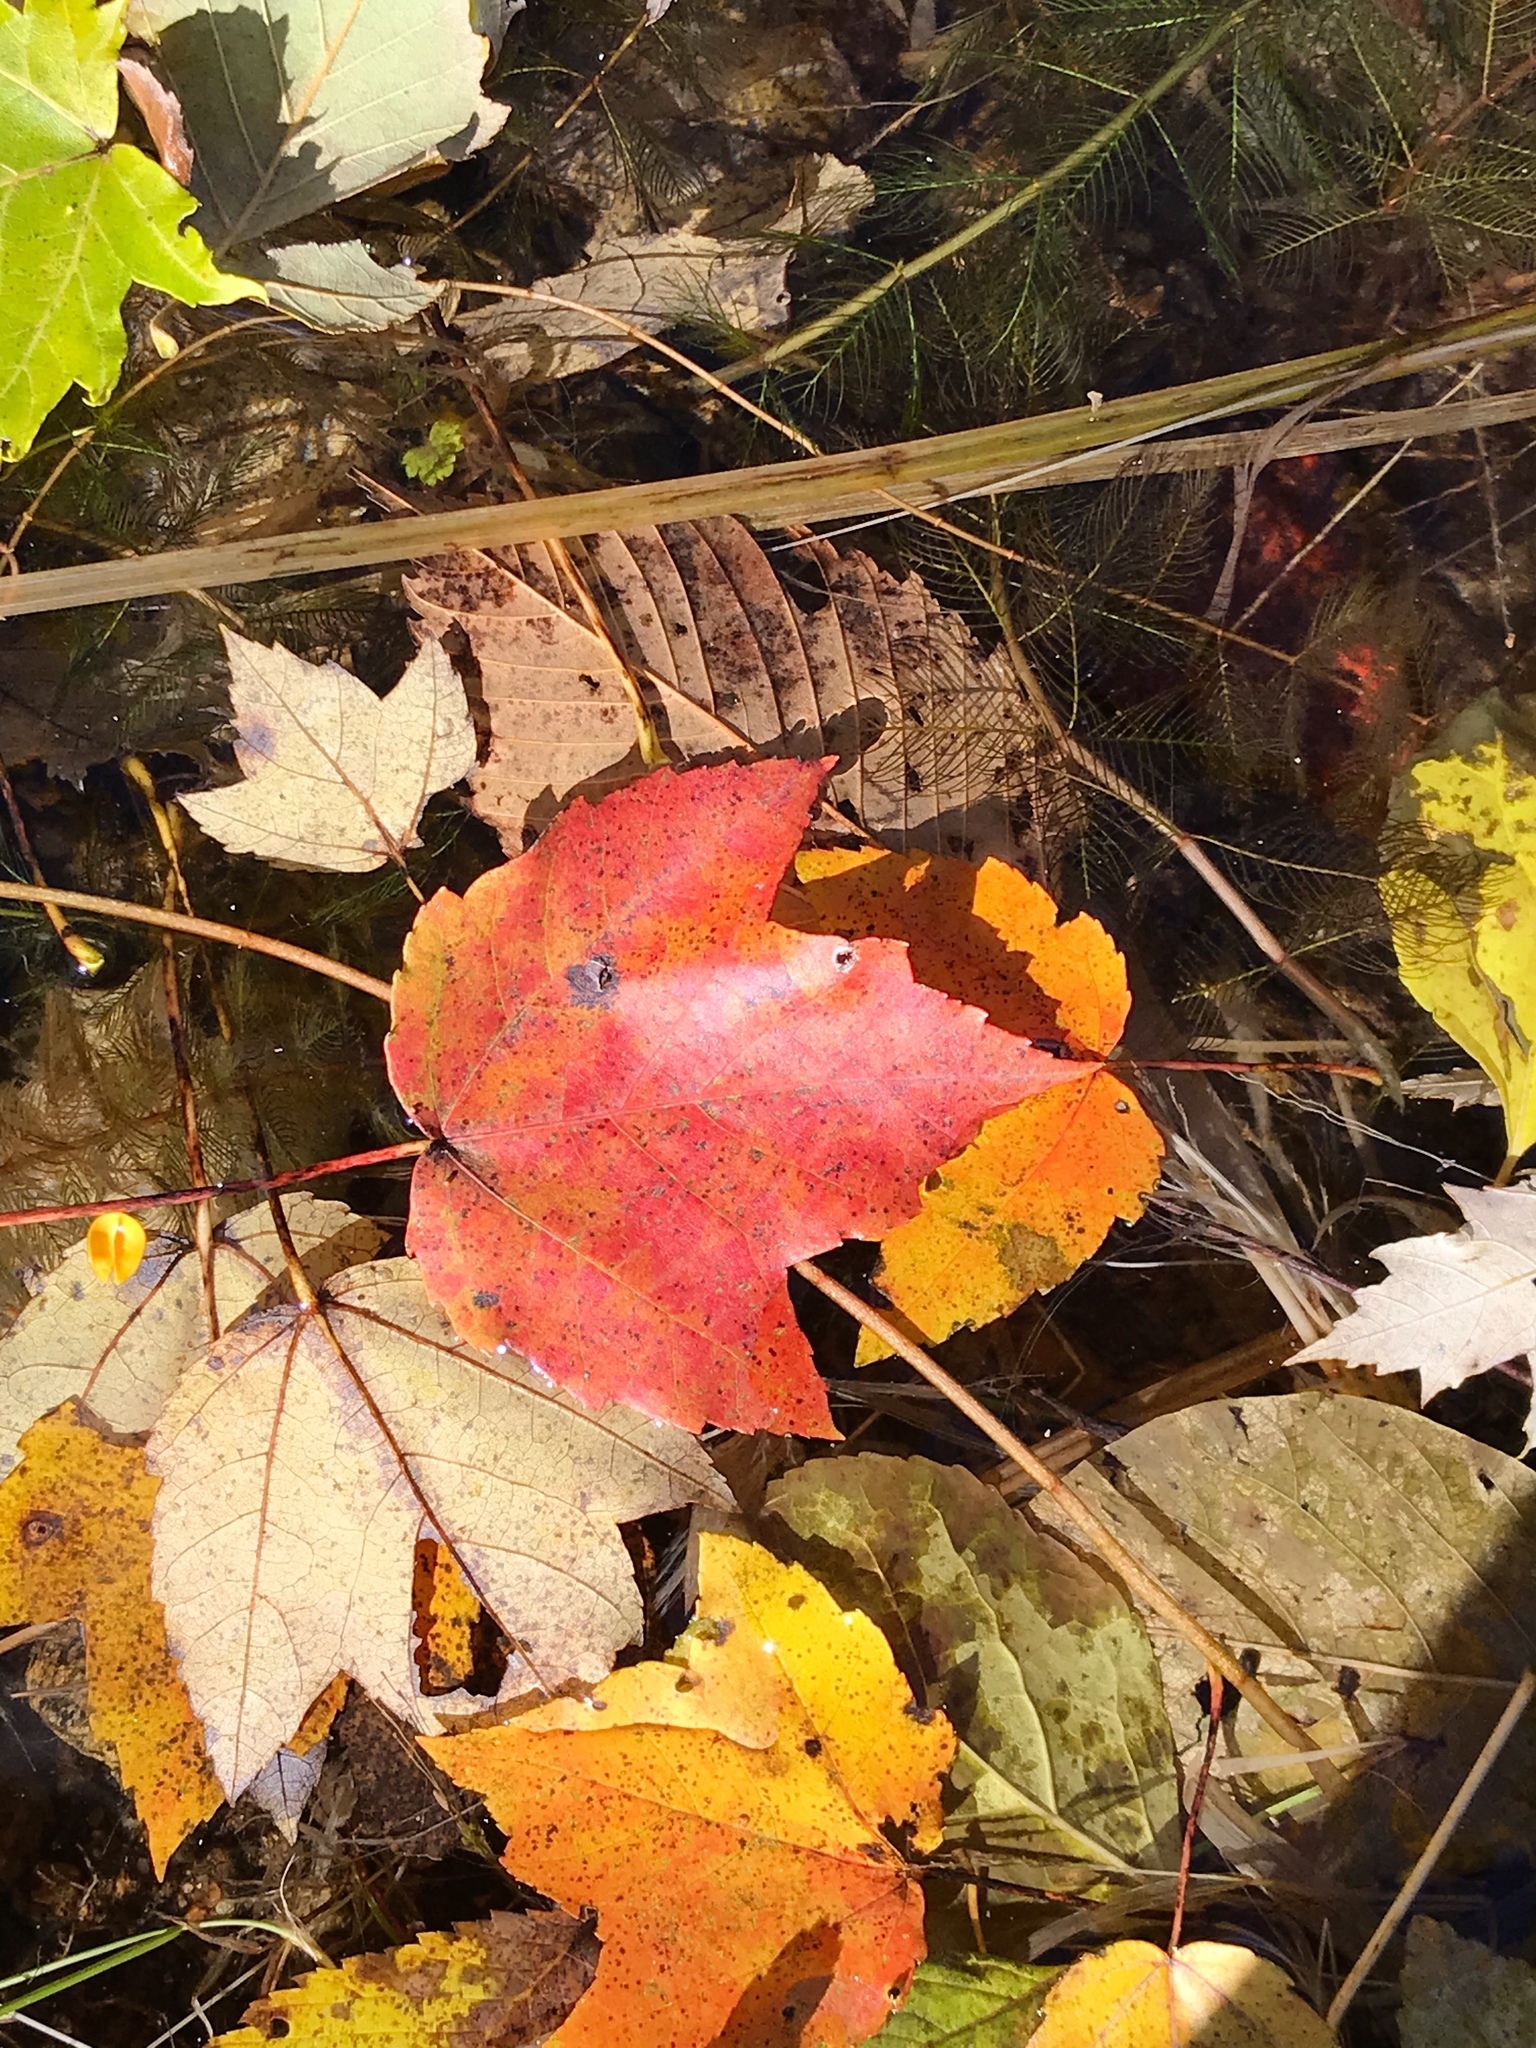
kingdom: Plantae
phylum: Tracheophyta
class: Magnoliopsida
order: Sapindales
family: Sapindaceae
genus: Acer
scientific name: Acer rubrum
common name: Red maple
